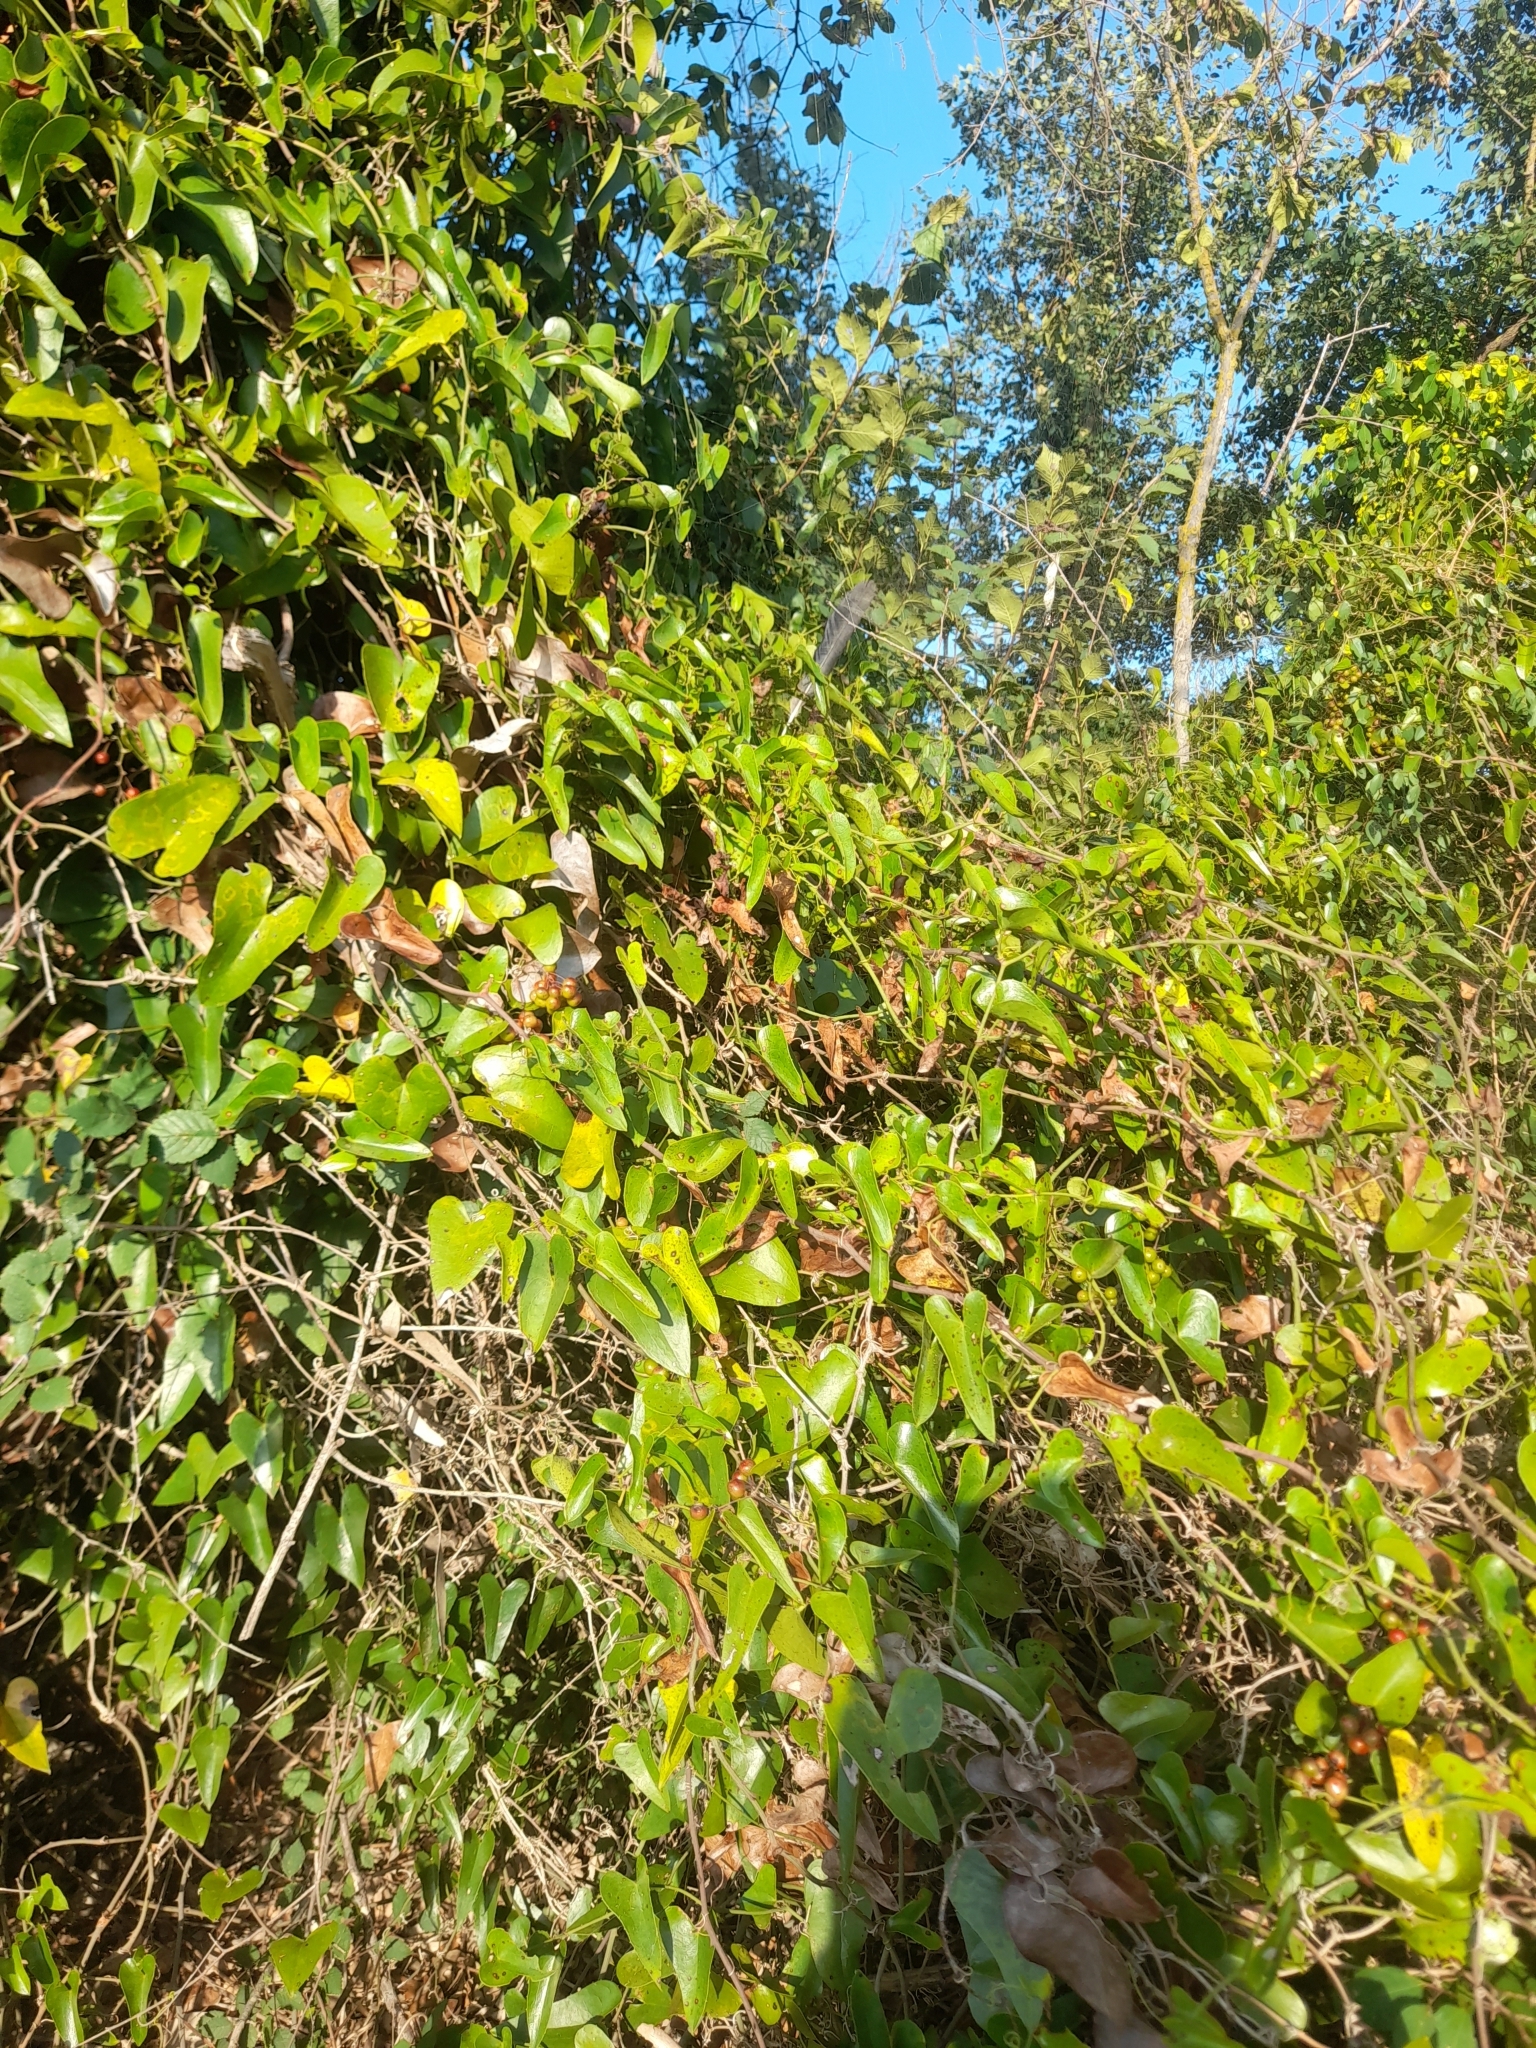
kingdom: Plantae
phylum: Tracheophyta
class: Liliopsida
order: Liliales
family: Smilacaceae
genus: Smilax
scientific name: Smilax aspera
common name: Common smilax
